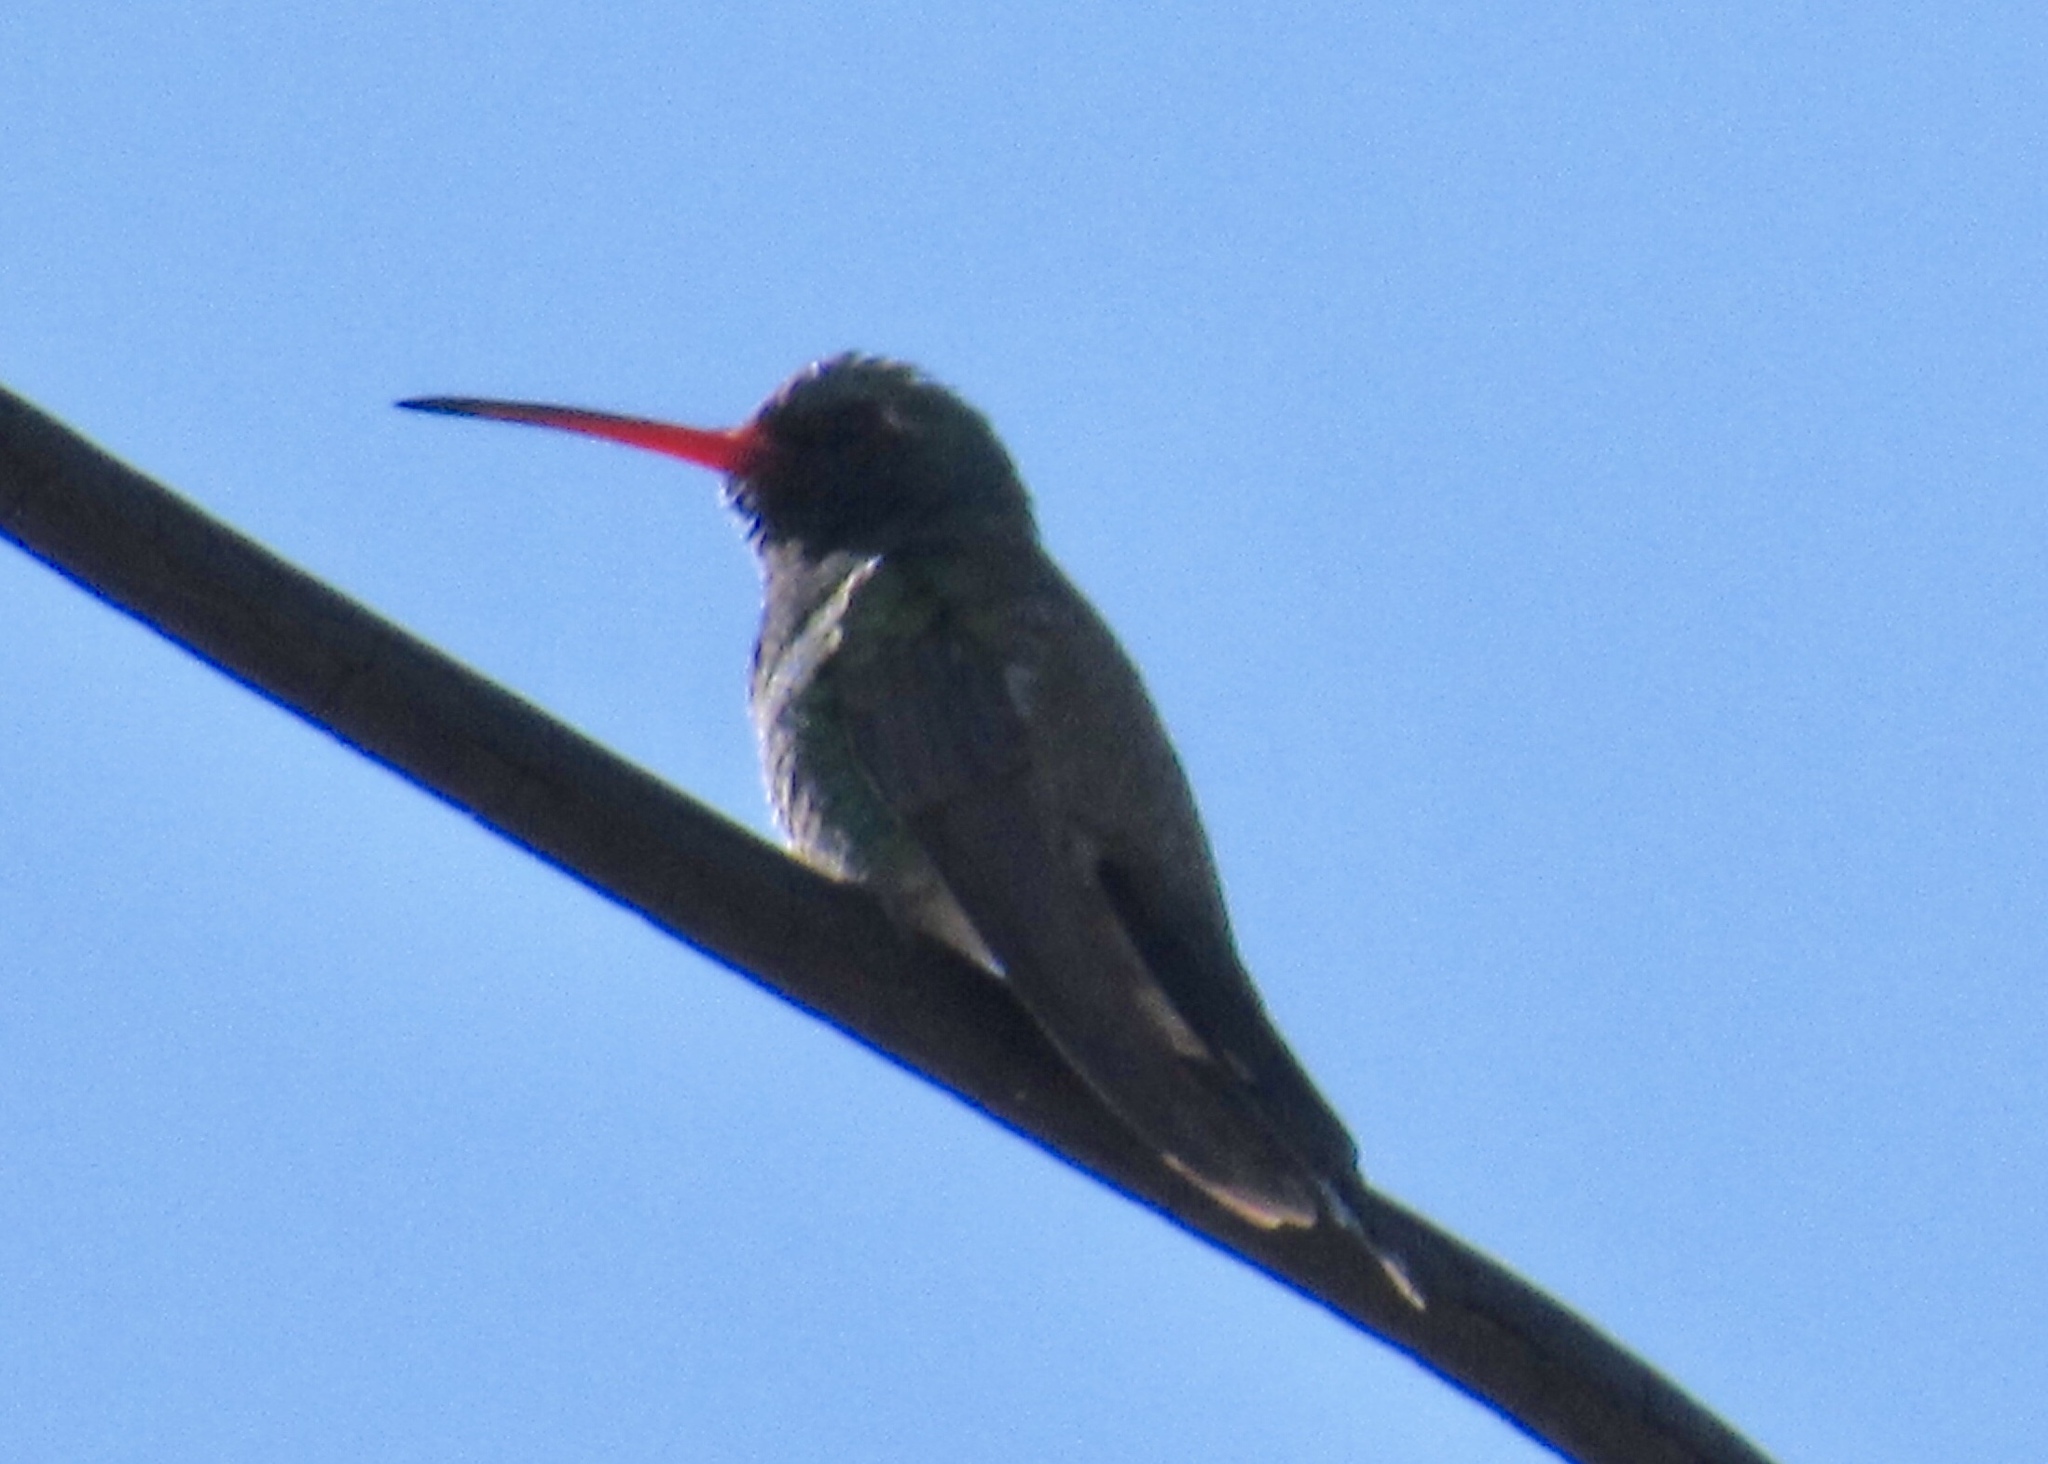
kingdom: Animalia
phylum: Chordata
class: Aves
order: Apodiformes
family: Trochilidae
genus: Cynanthus
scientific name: Cynanthus latirostris
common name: Broad-billed hummingbird
